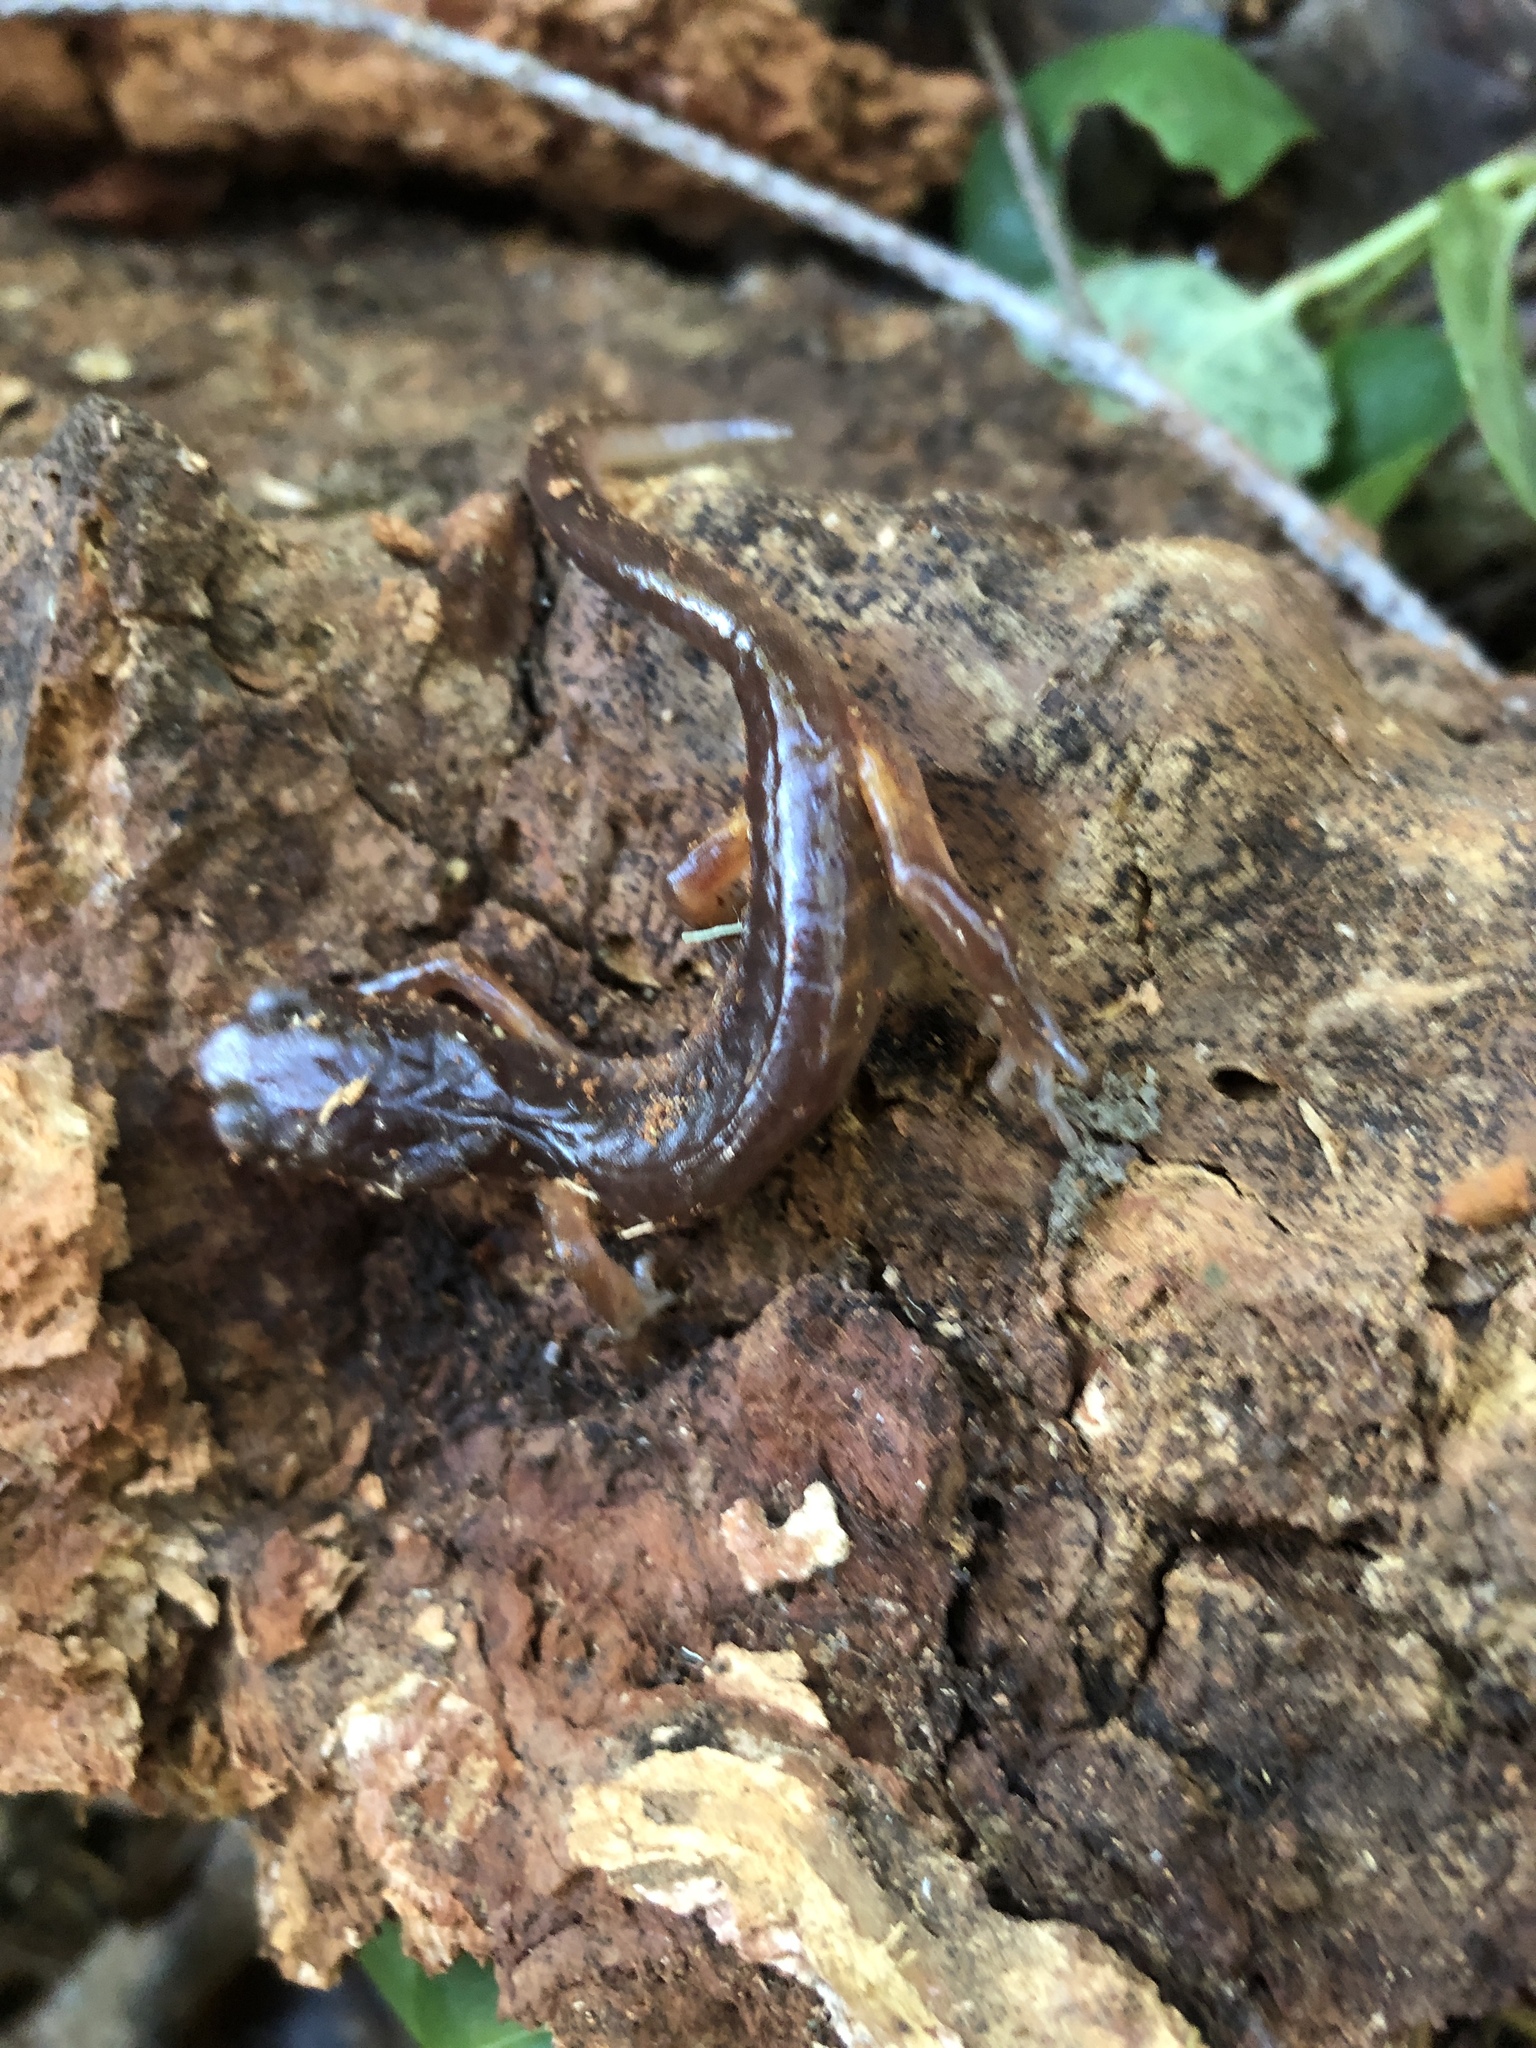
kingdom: Animalia
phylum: Chordata
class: Amphibia
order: Caudata
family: Plethodontidae
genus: Ensatina
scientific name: Ensatina eschscholtzii
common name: Ensatina
